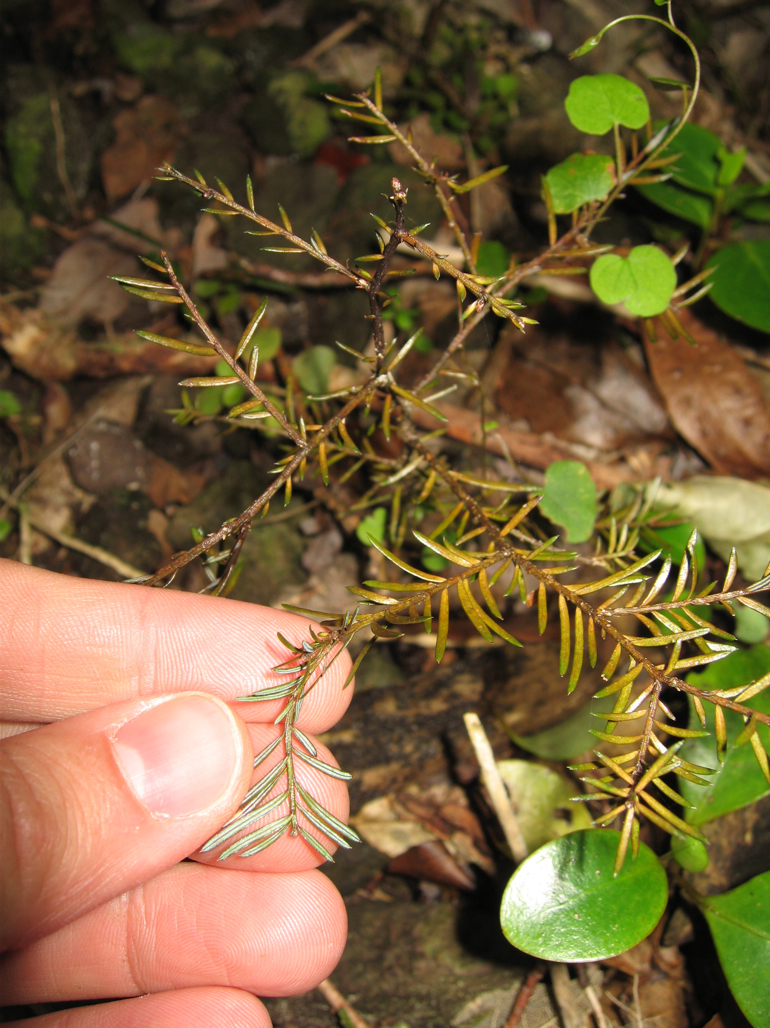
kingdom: Plantae
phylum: Tracheophyta
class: Pinopsida
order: Pinales
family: Podocarpaceae
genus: Prumnopitys
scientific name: Prumnopitys taxifolia
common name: Matai
